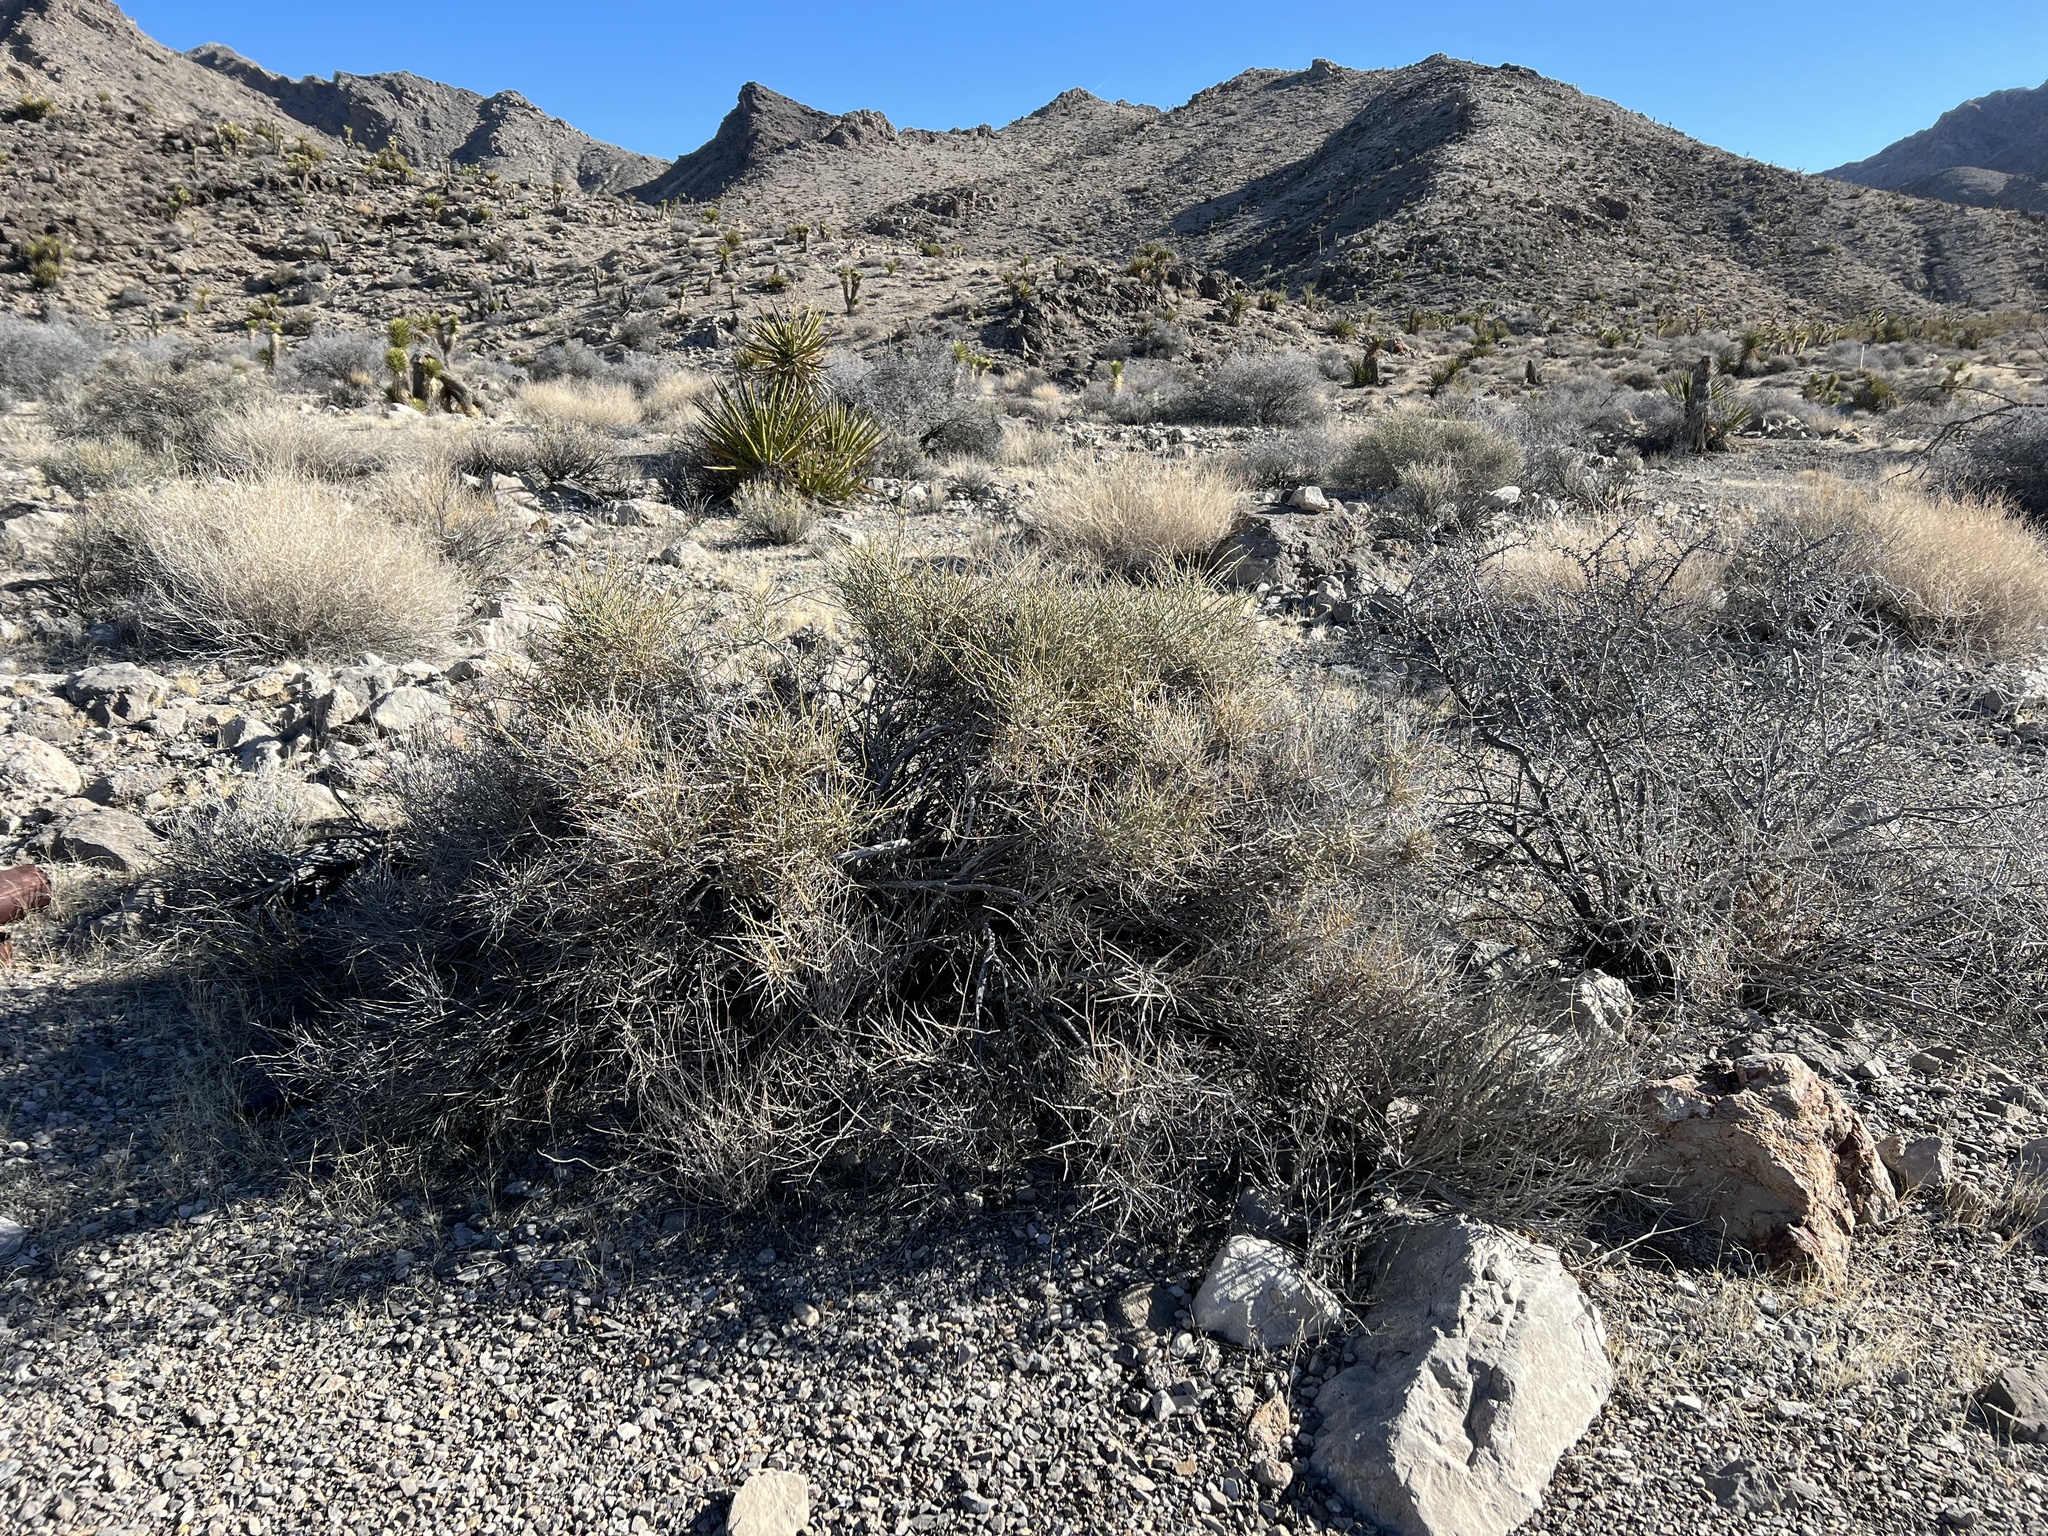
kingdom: Plantae
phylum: Tracheophyta
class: Gnetopsida
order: Ephedrales
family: Ephedraceae
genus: Ephedra
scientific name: Ephedra nevadensis
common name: Gray ephedra
